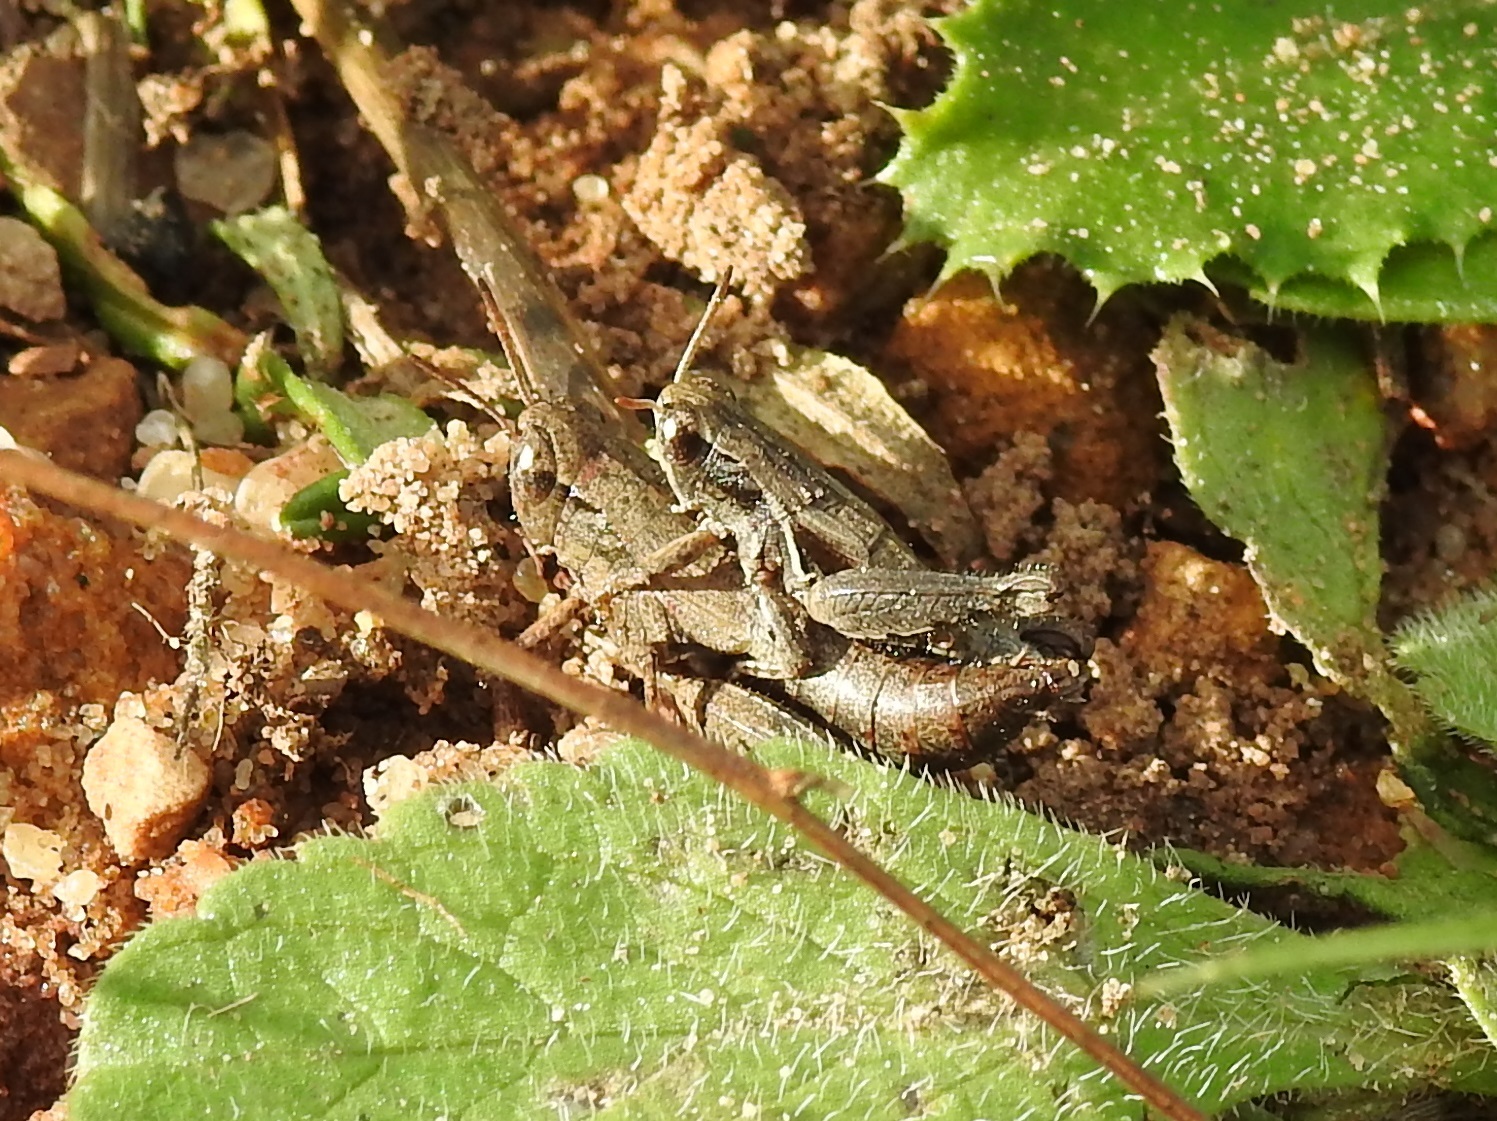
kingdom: Animalia
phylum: Arthropoda
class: Insecta
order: Orthoptera
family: Acrididae
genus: Pezotettix
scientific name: Pezotettix giornae
